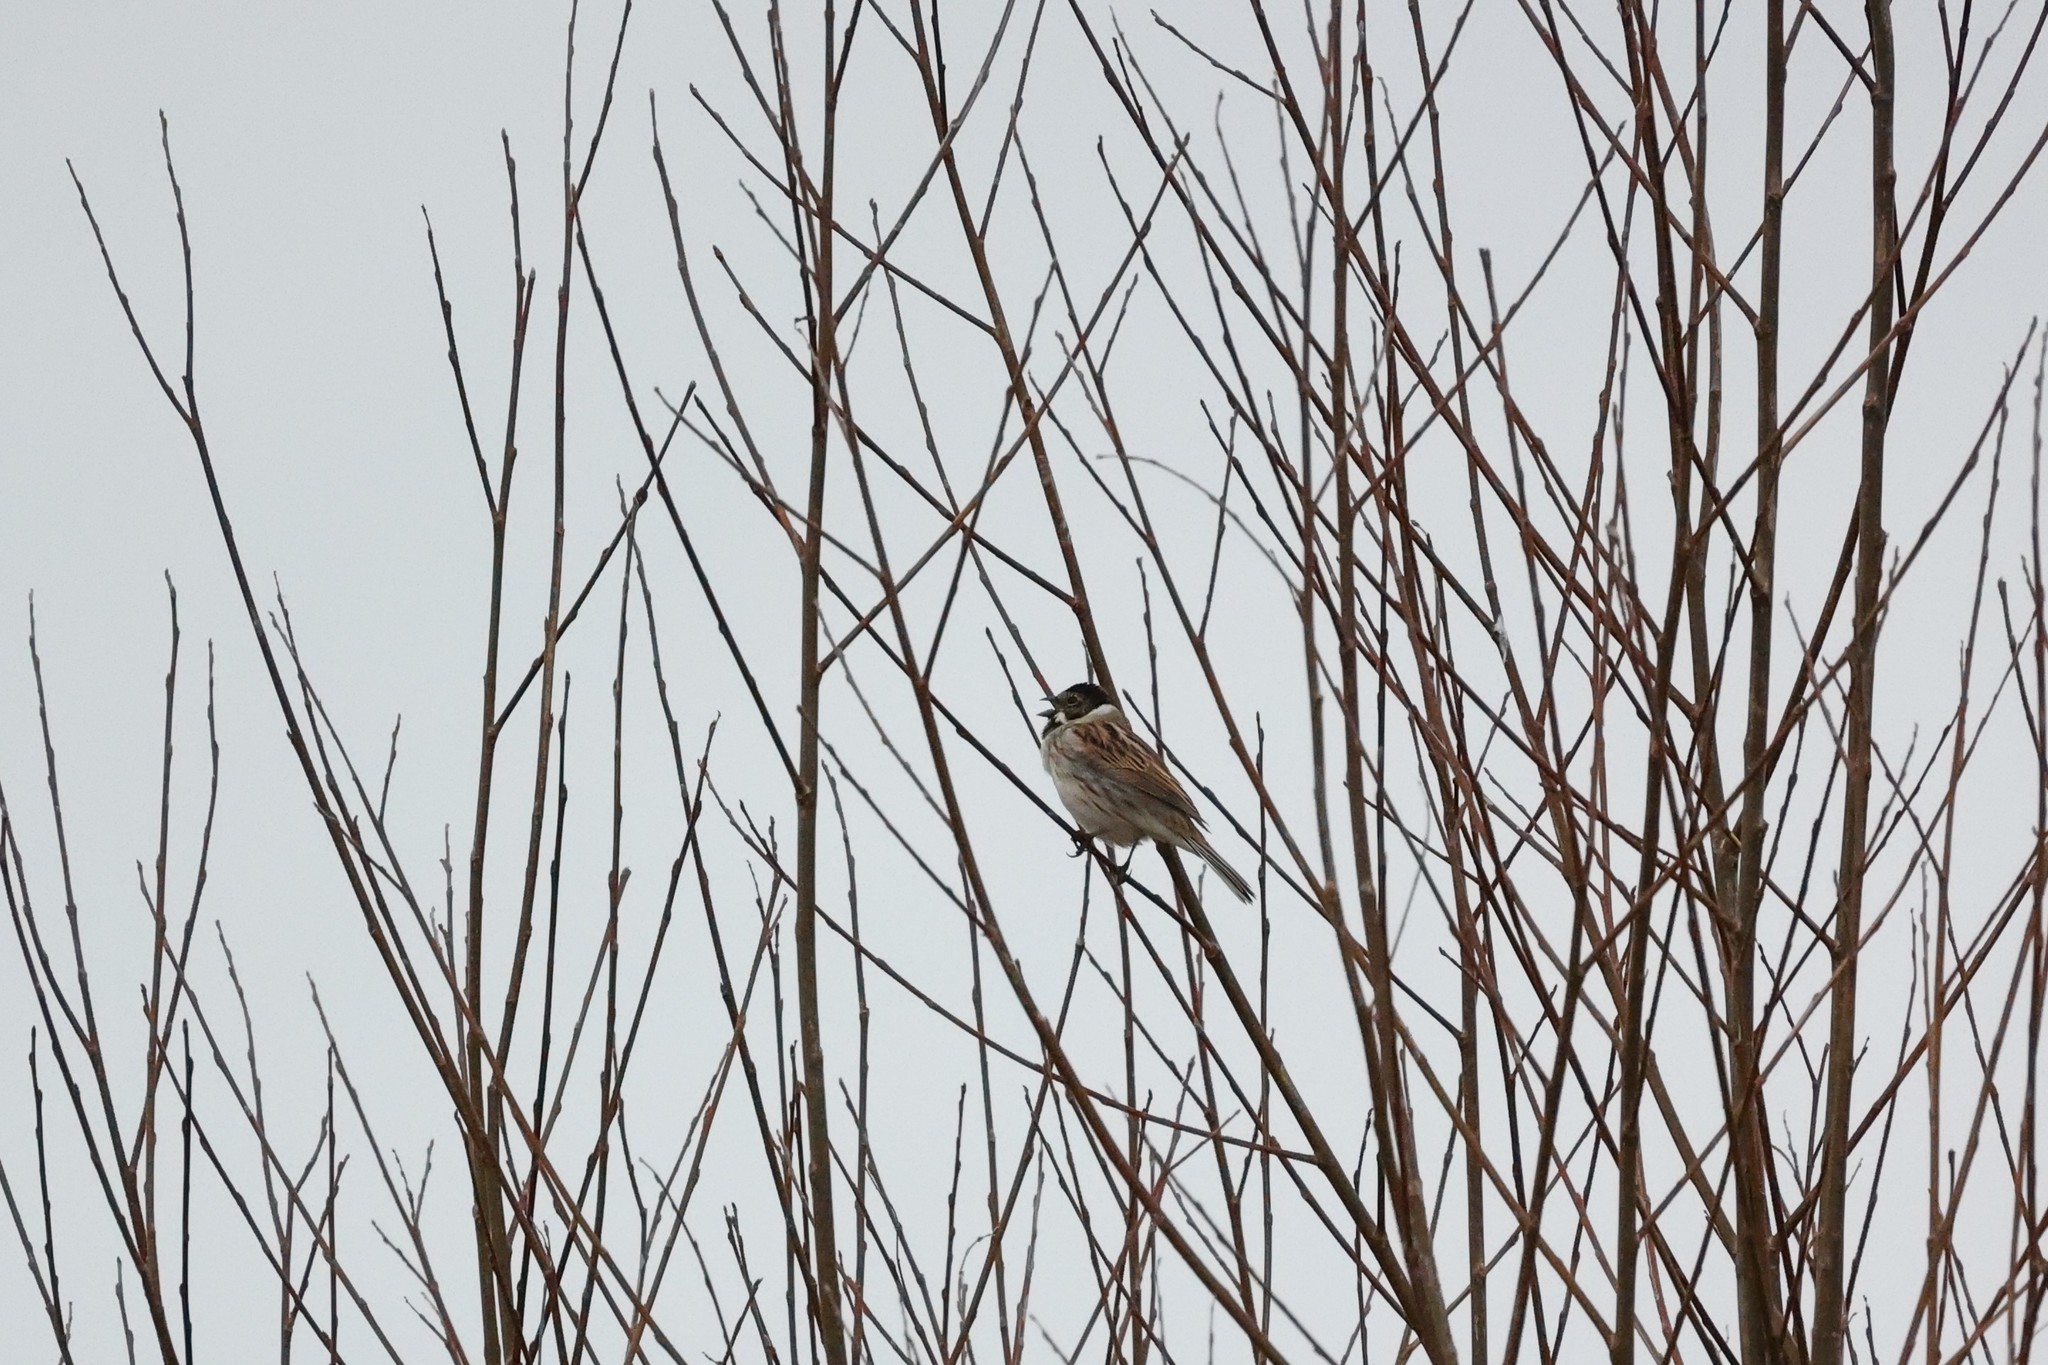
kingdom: Animalia
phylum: Chordata
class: Aves
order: Passeriformes
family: Emberizidae
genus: Emberiza
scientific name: Emberiza schoeniclus
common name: Reed bunting
